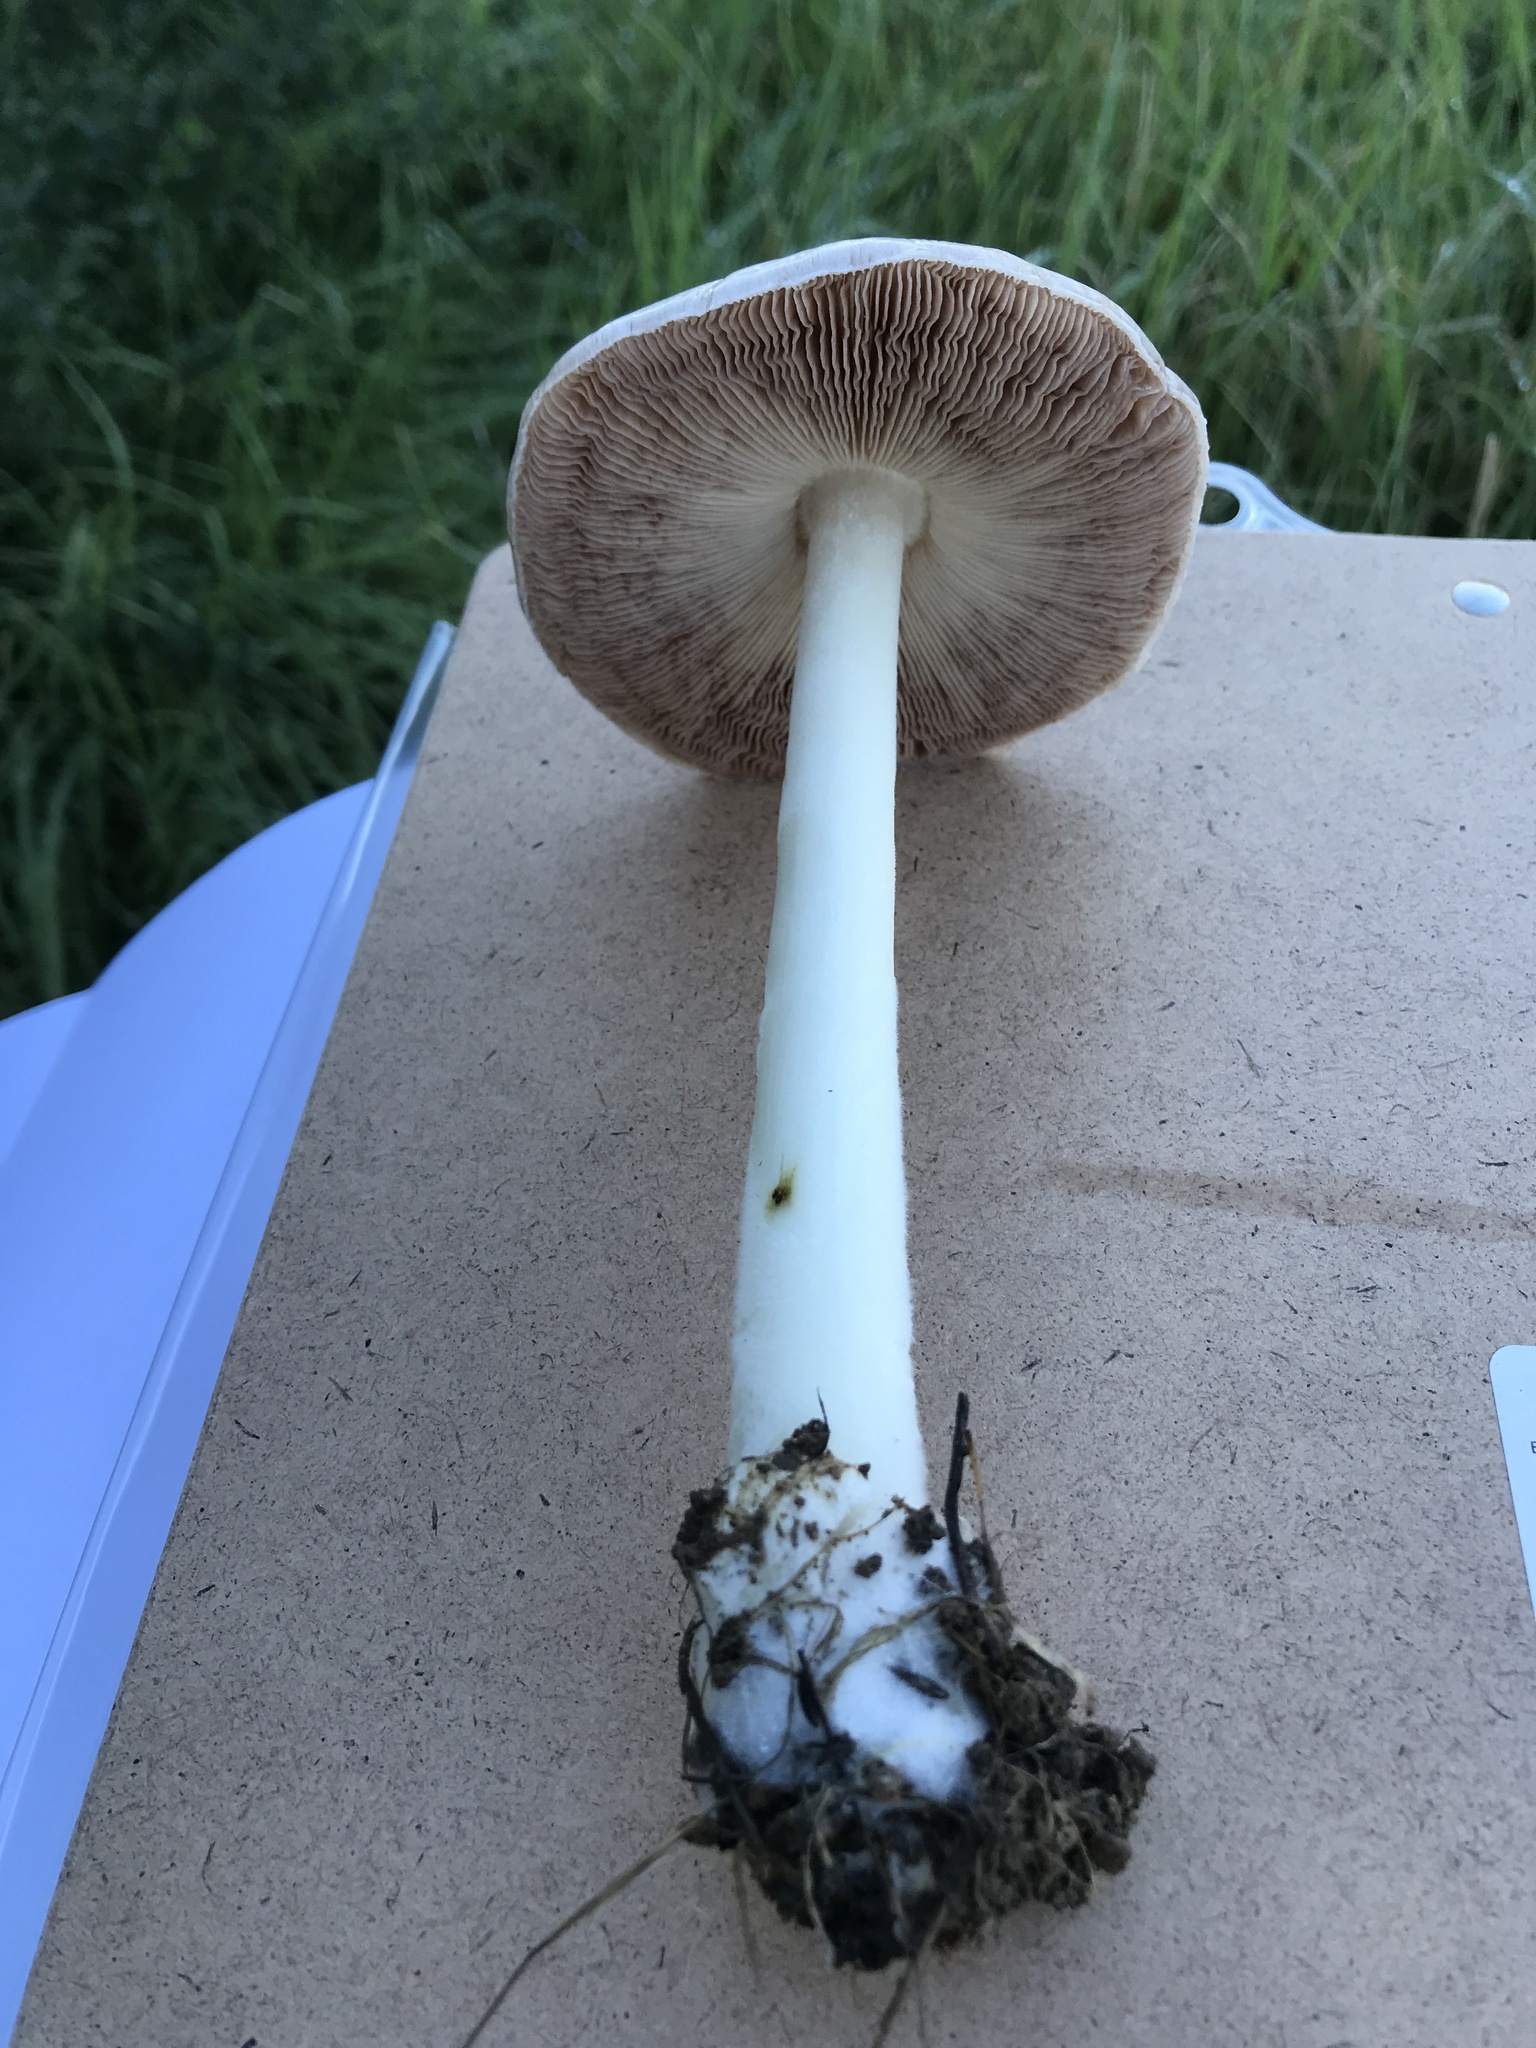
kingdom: Fungi
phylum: Basidiomycota
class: Agaricomycetes
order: Agaricales
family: Pluteaceae
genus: Volvopluteus
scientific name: Volvopluteus gloiocephalus
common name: Stubble rosegill
